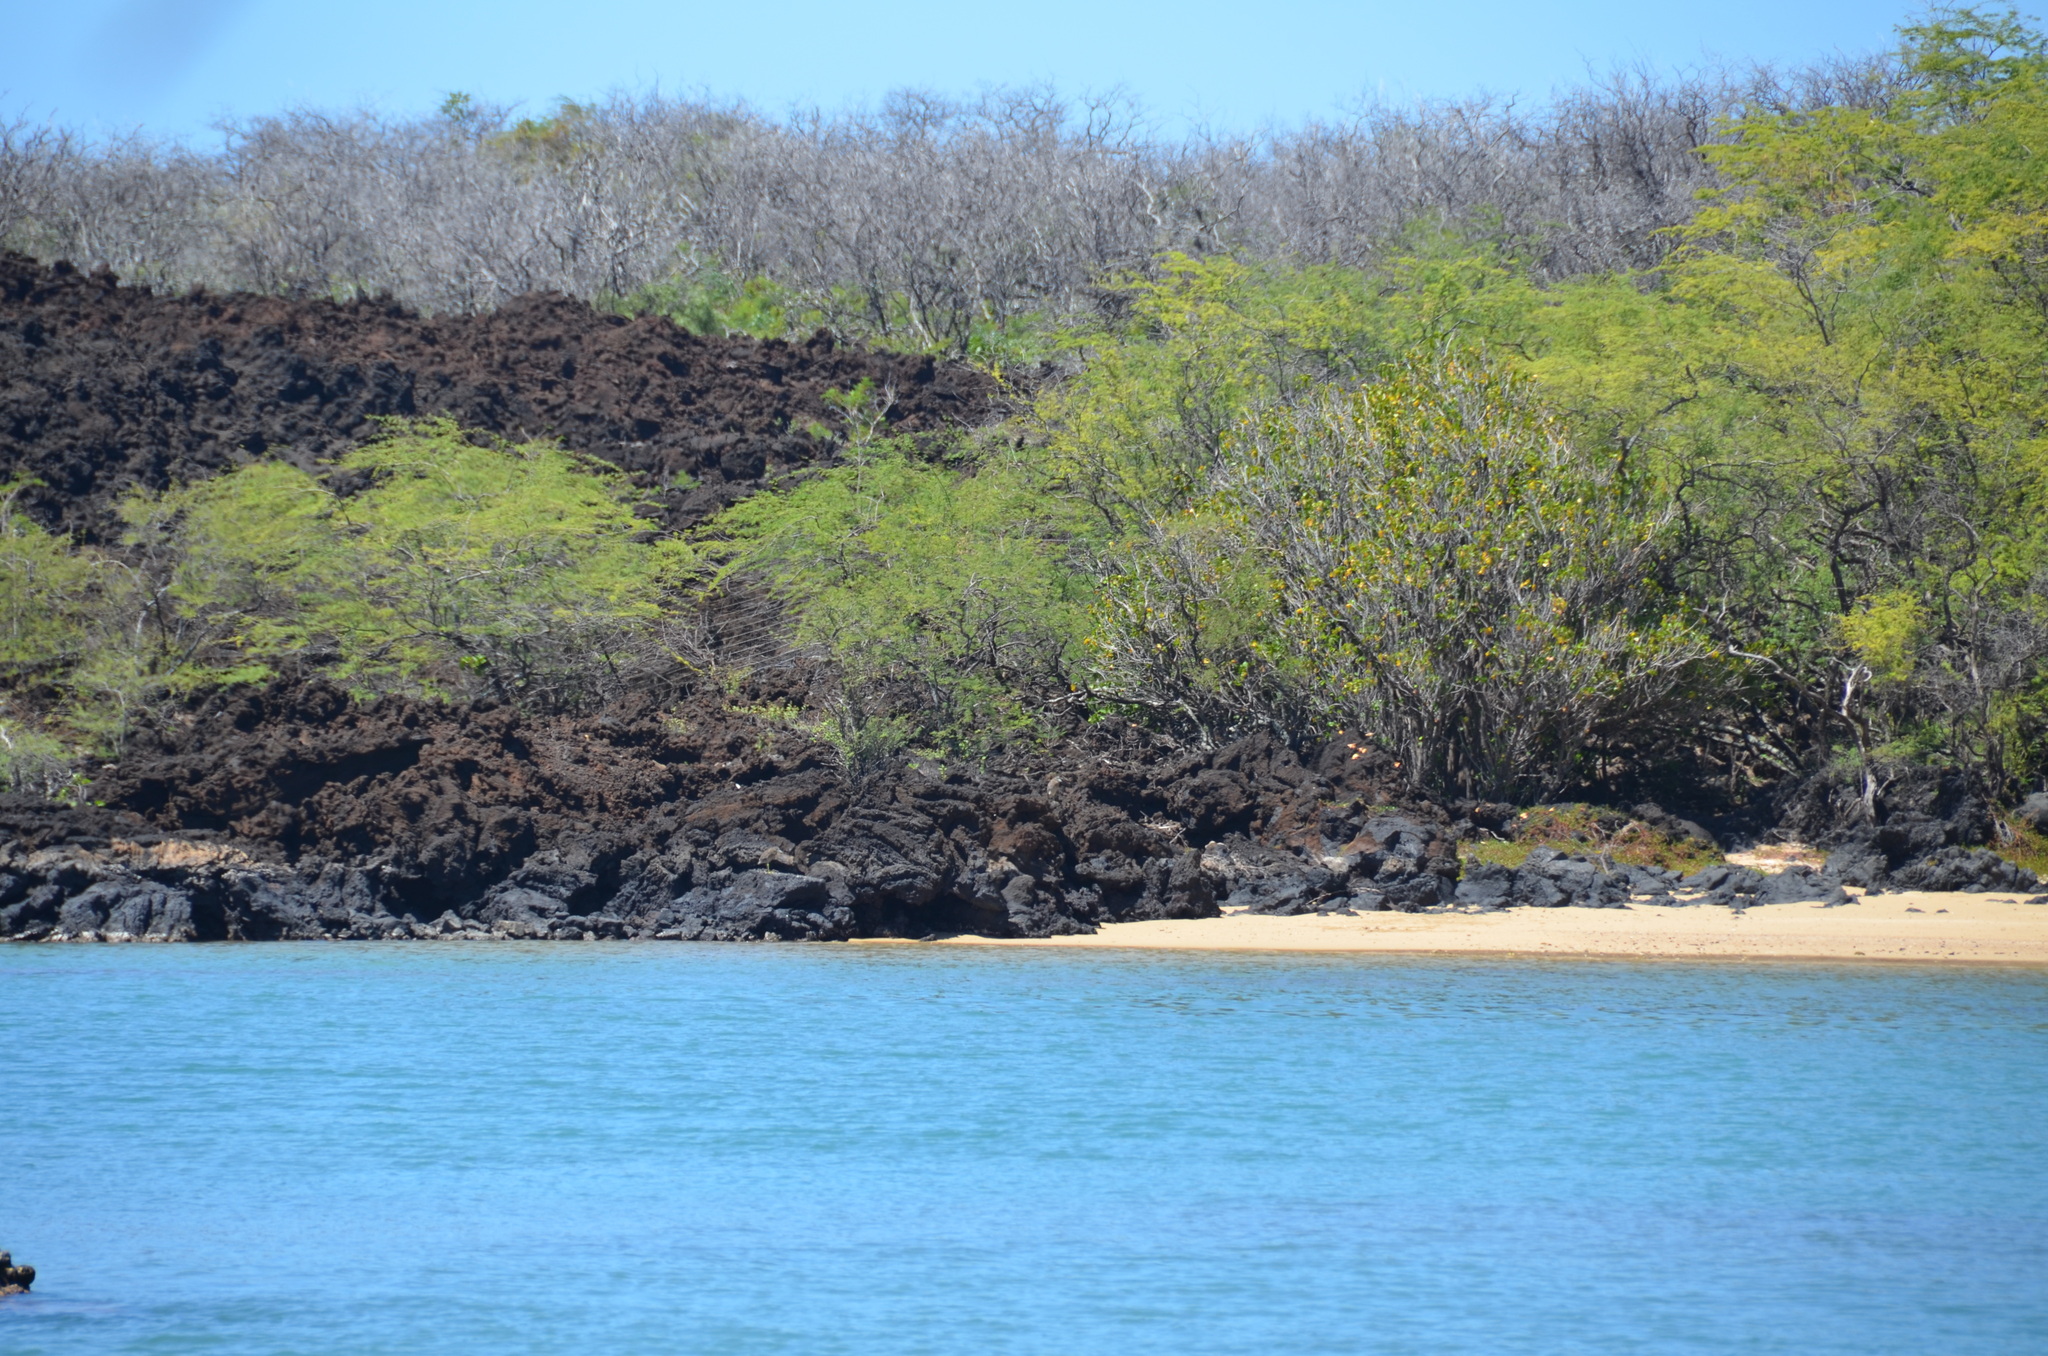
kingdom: Animalia
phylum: Chordata
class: Aves
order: Pelecaniformes
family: Ardeidae
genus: Nycticorax
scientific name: Nycticorax nycticorax
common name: Black-crowned night heron
